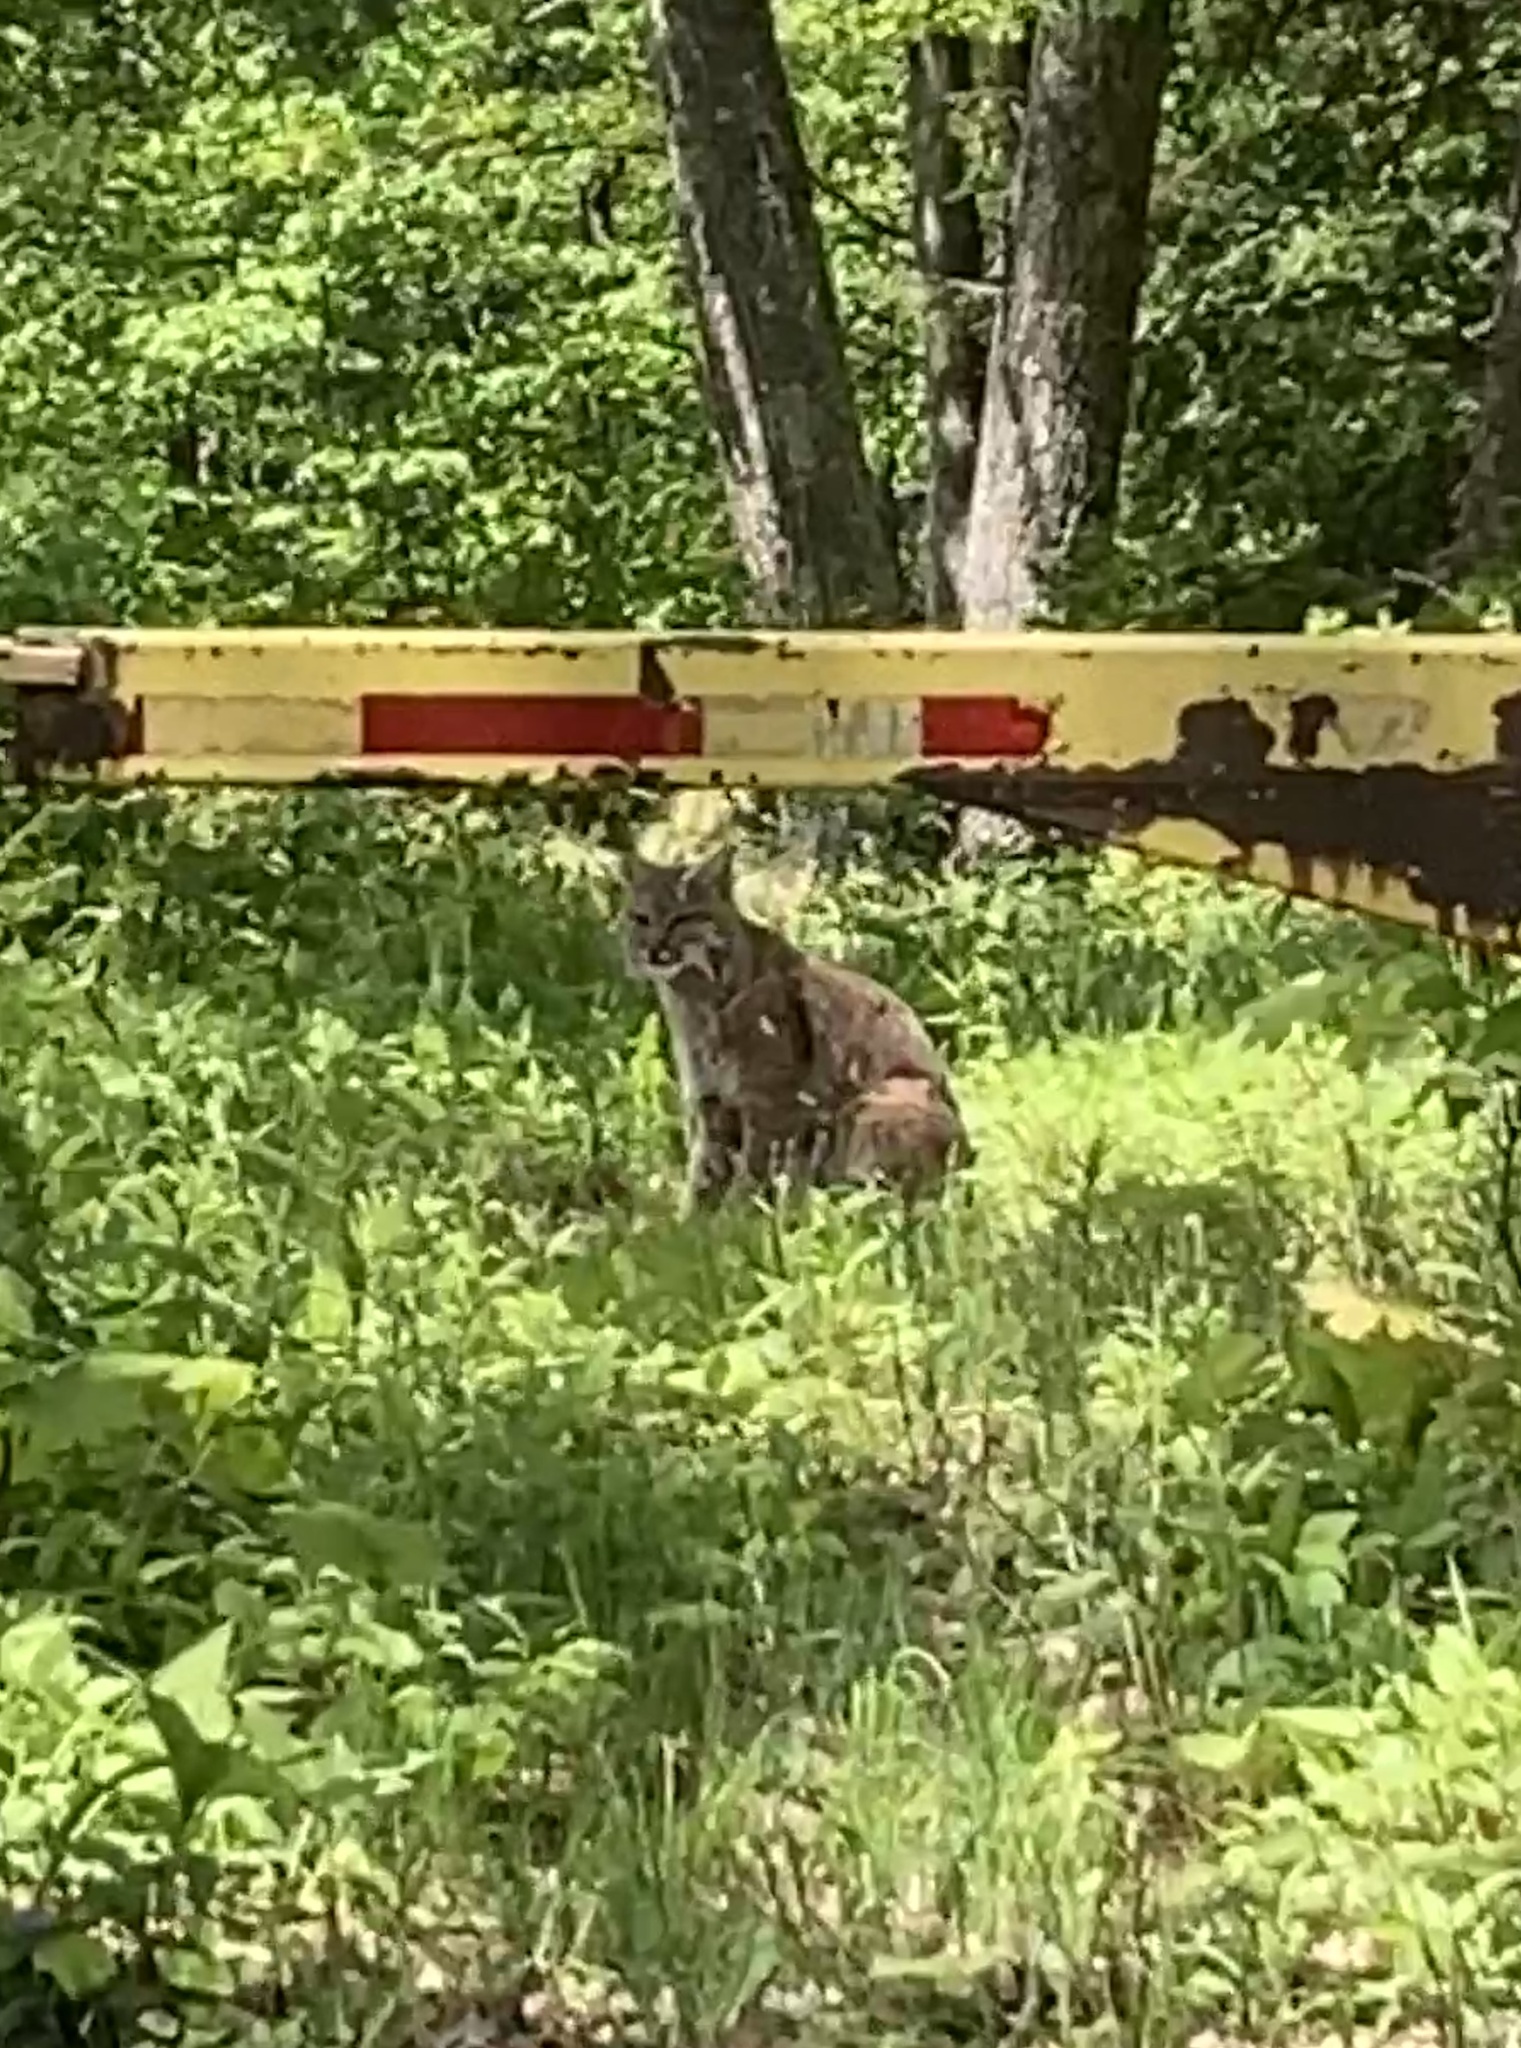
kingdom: Animalia
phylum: Chordata
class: Mammalia
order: Carnivora
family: Felidae
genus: Lynx
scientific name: Lynx rufus
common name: Bobcat
